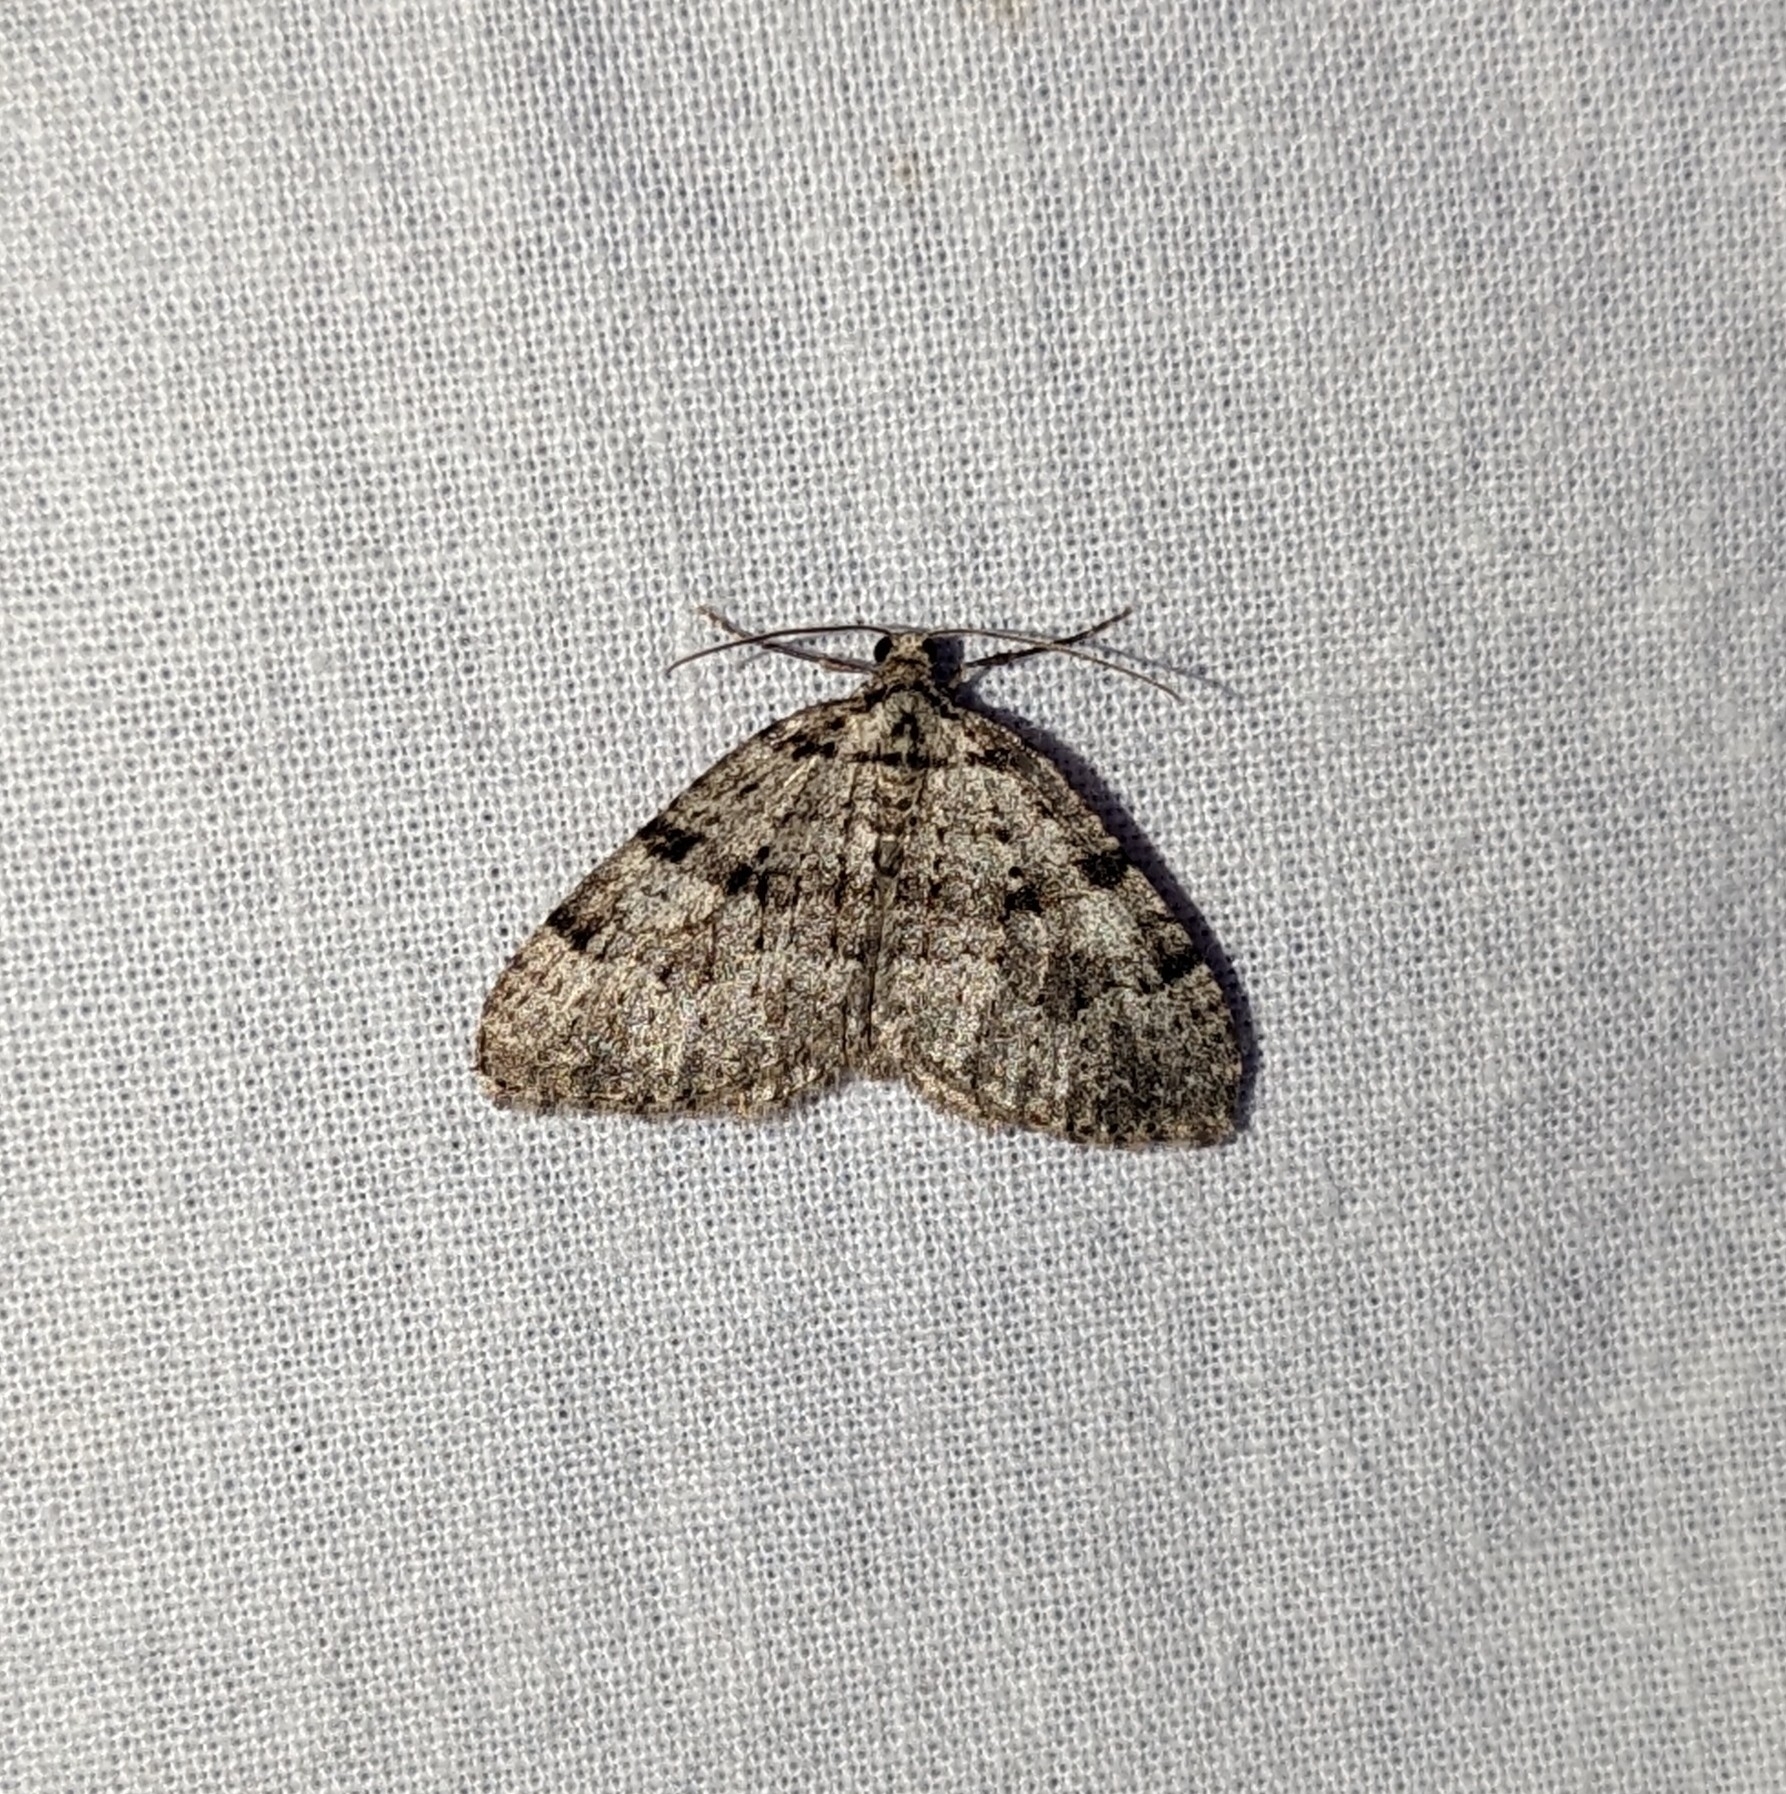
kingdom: Animalia
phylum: Arthropoda
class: Insecta
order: Lepidoptera
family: Geometridae
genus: Perizoma
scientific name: Perizoma curvilinea
